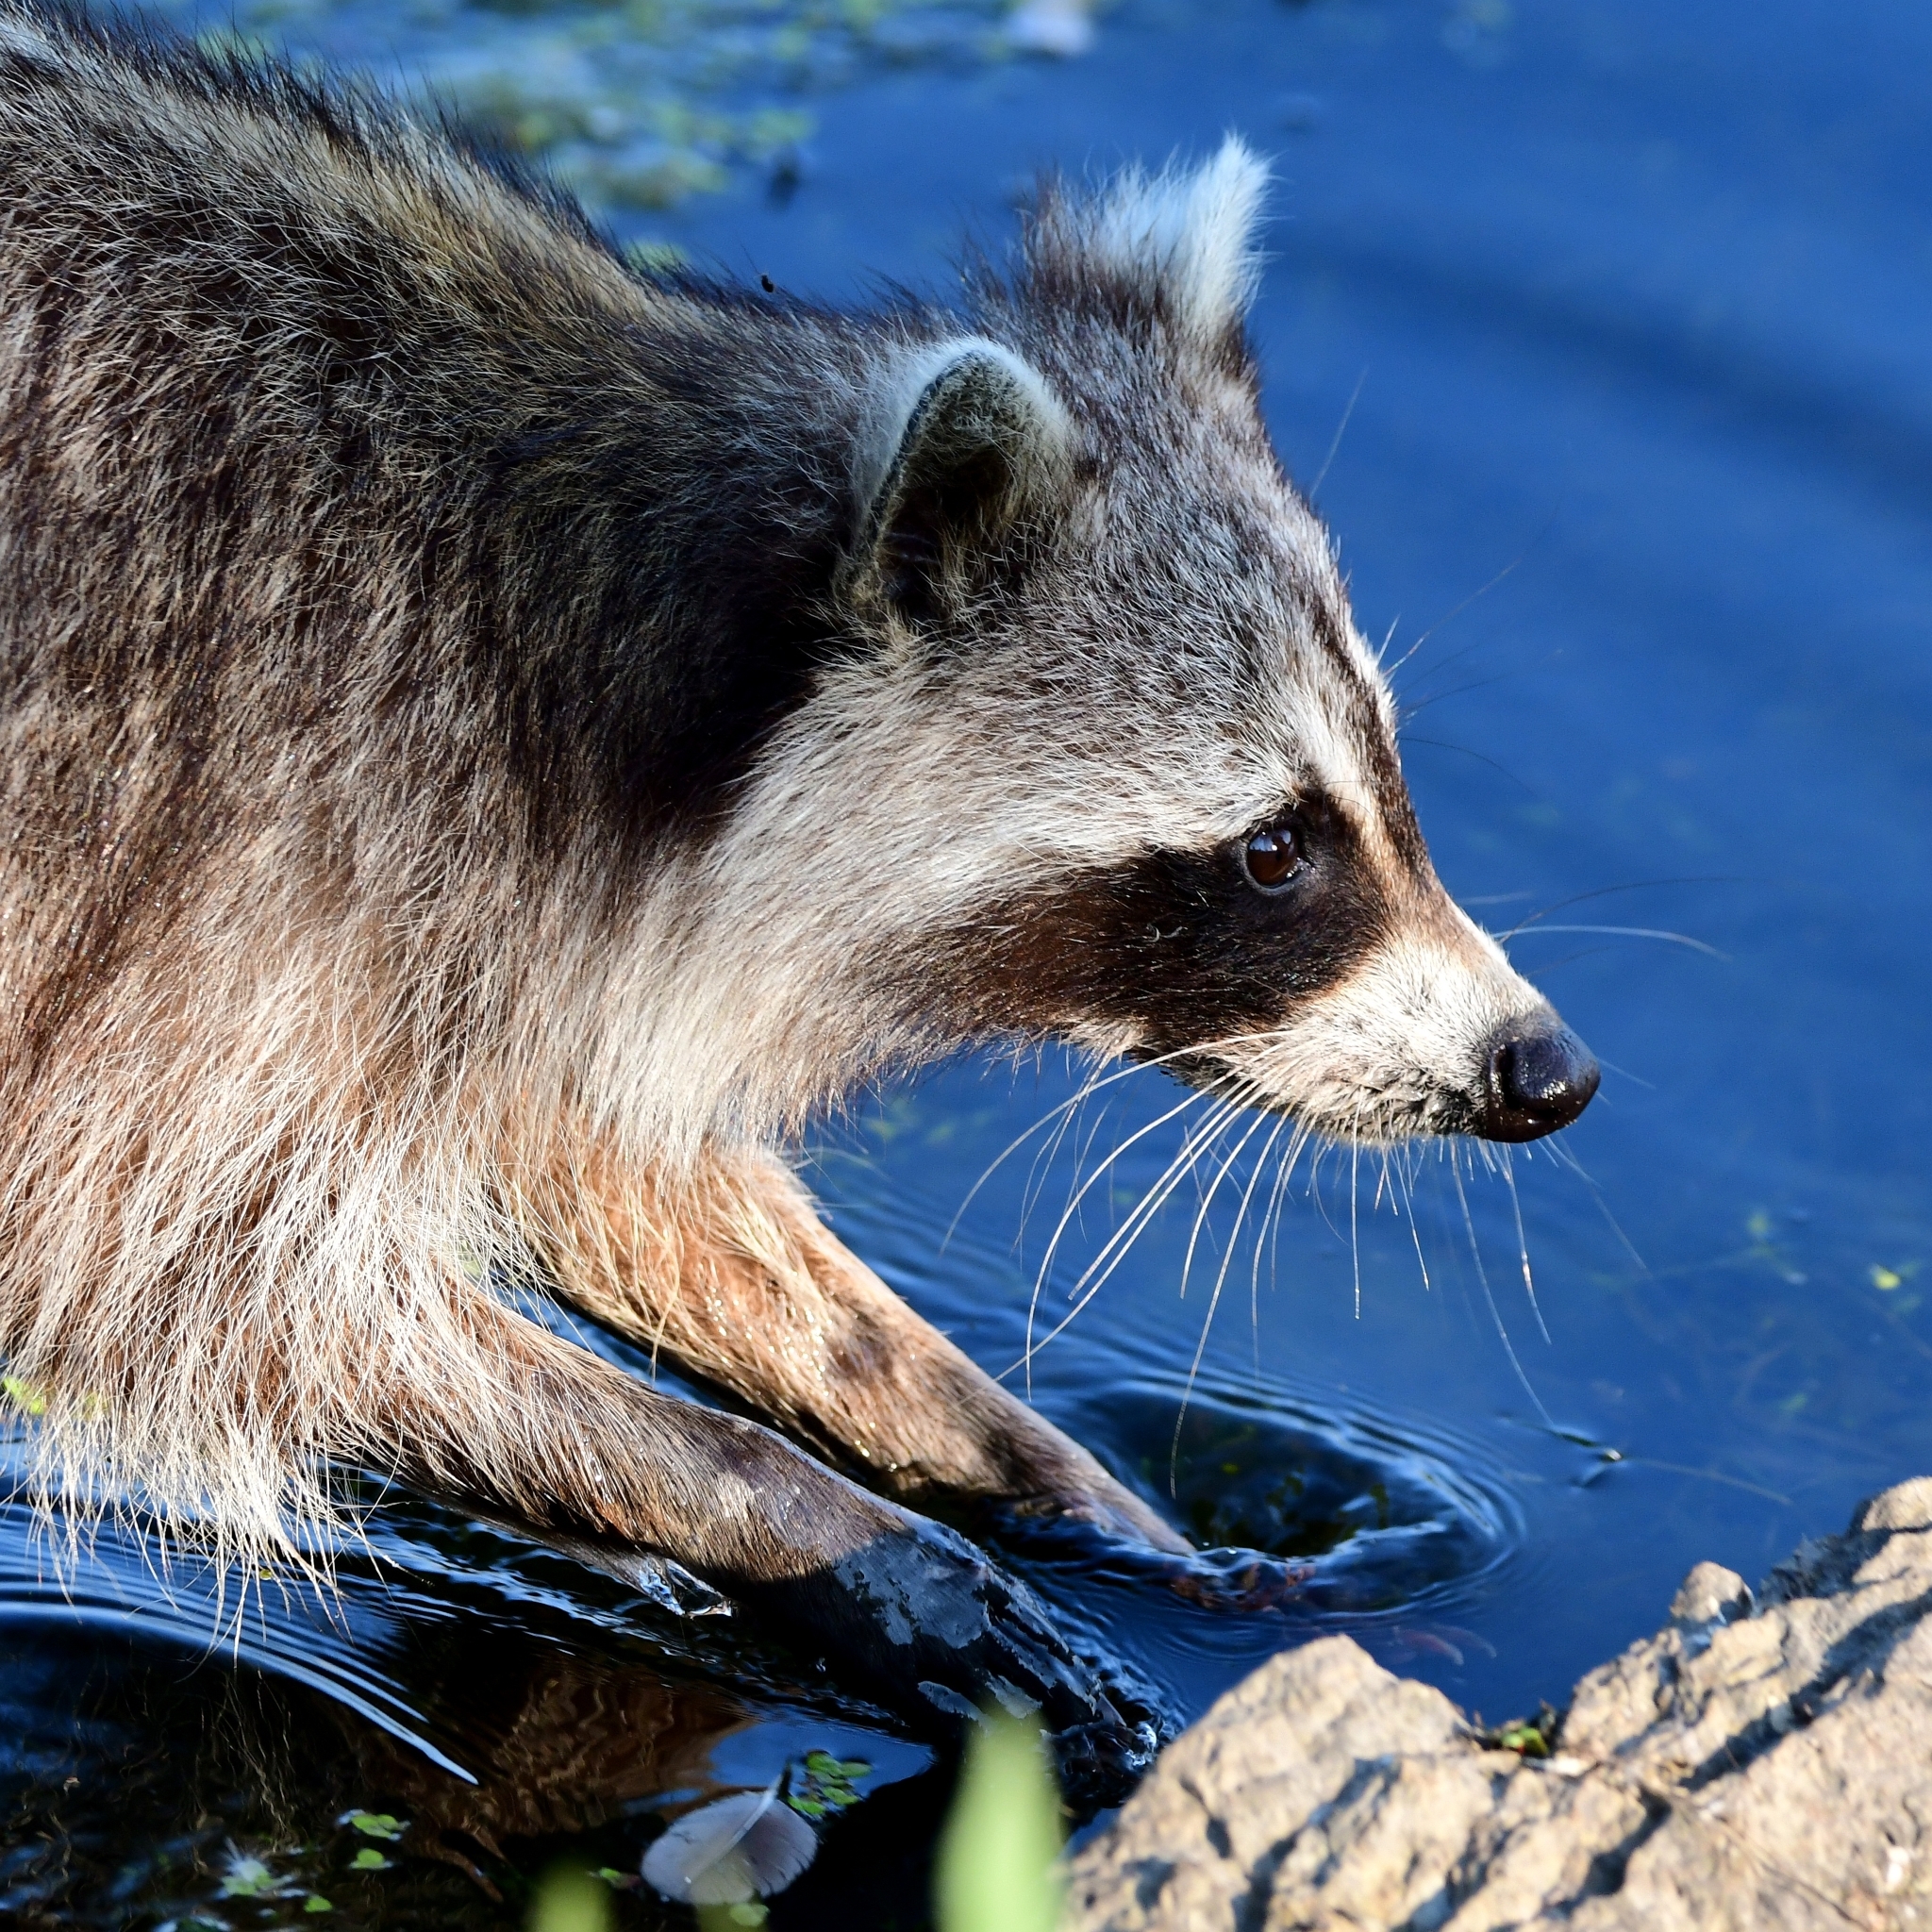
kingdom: Animalia
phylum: Chordata
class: Mammalia
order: Carnivora
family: Procyonidae
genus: Procyon
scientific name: Procyon lotor
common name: Raccoon
